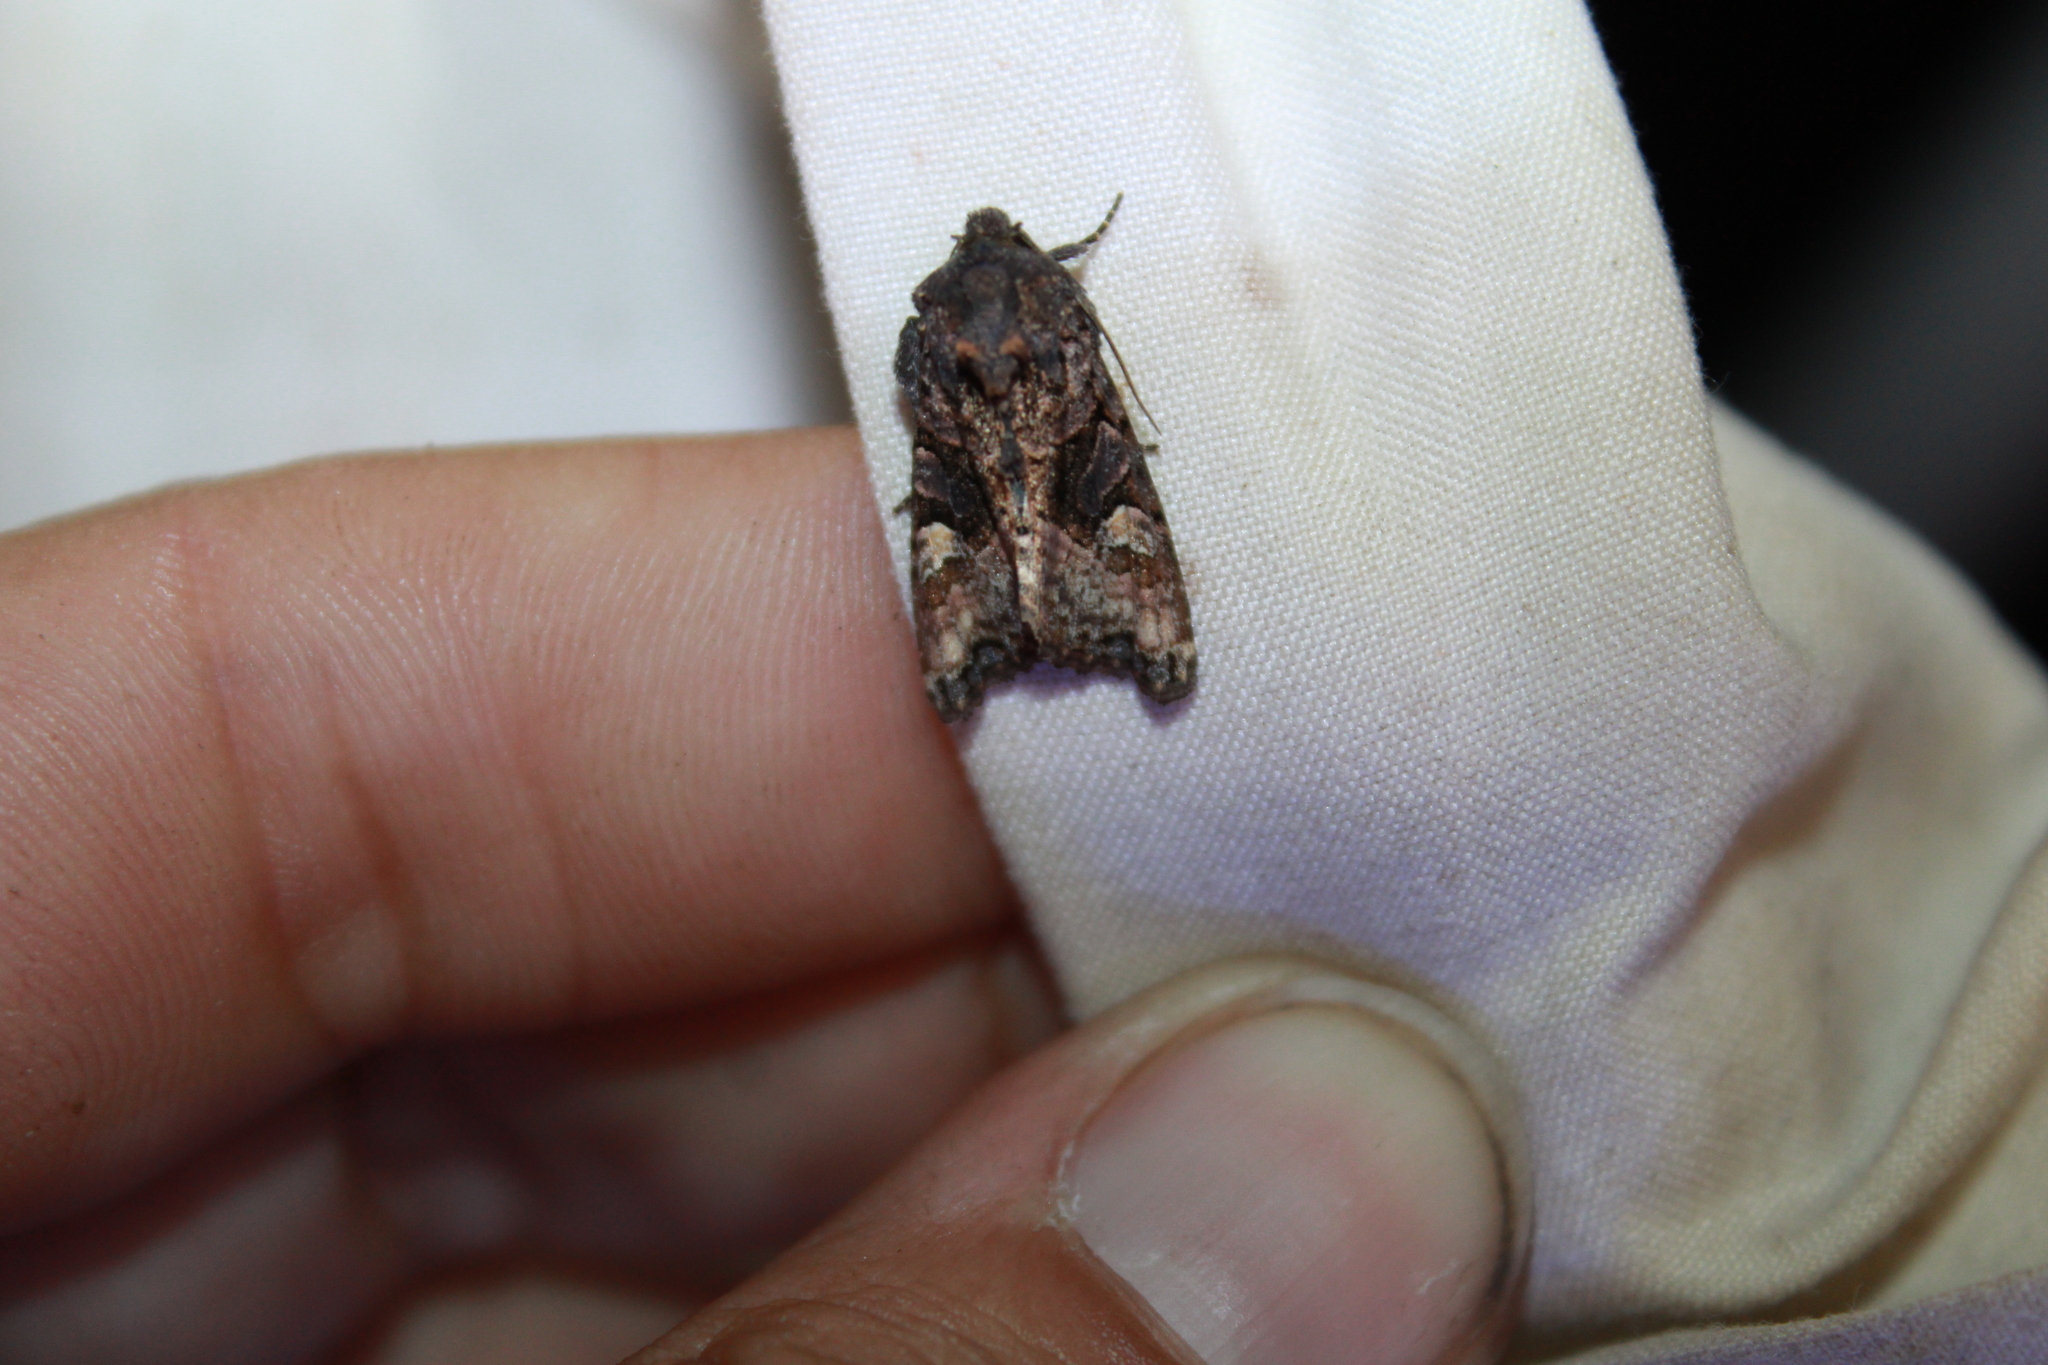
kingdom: Animalia
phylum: Arthropoda
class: Insecta
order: Lepidoptera
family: Noctuidae
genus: Euplexia
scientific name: Euplexia benesimilis
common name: American angle shades
